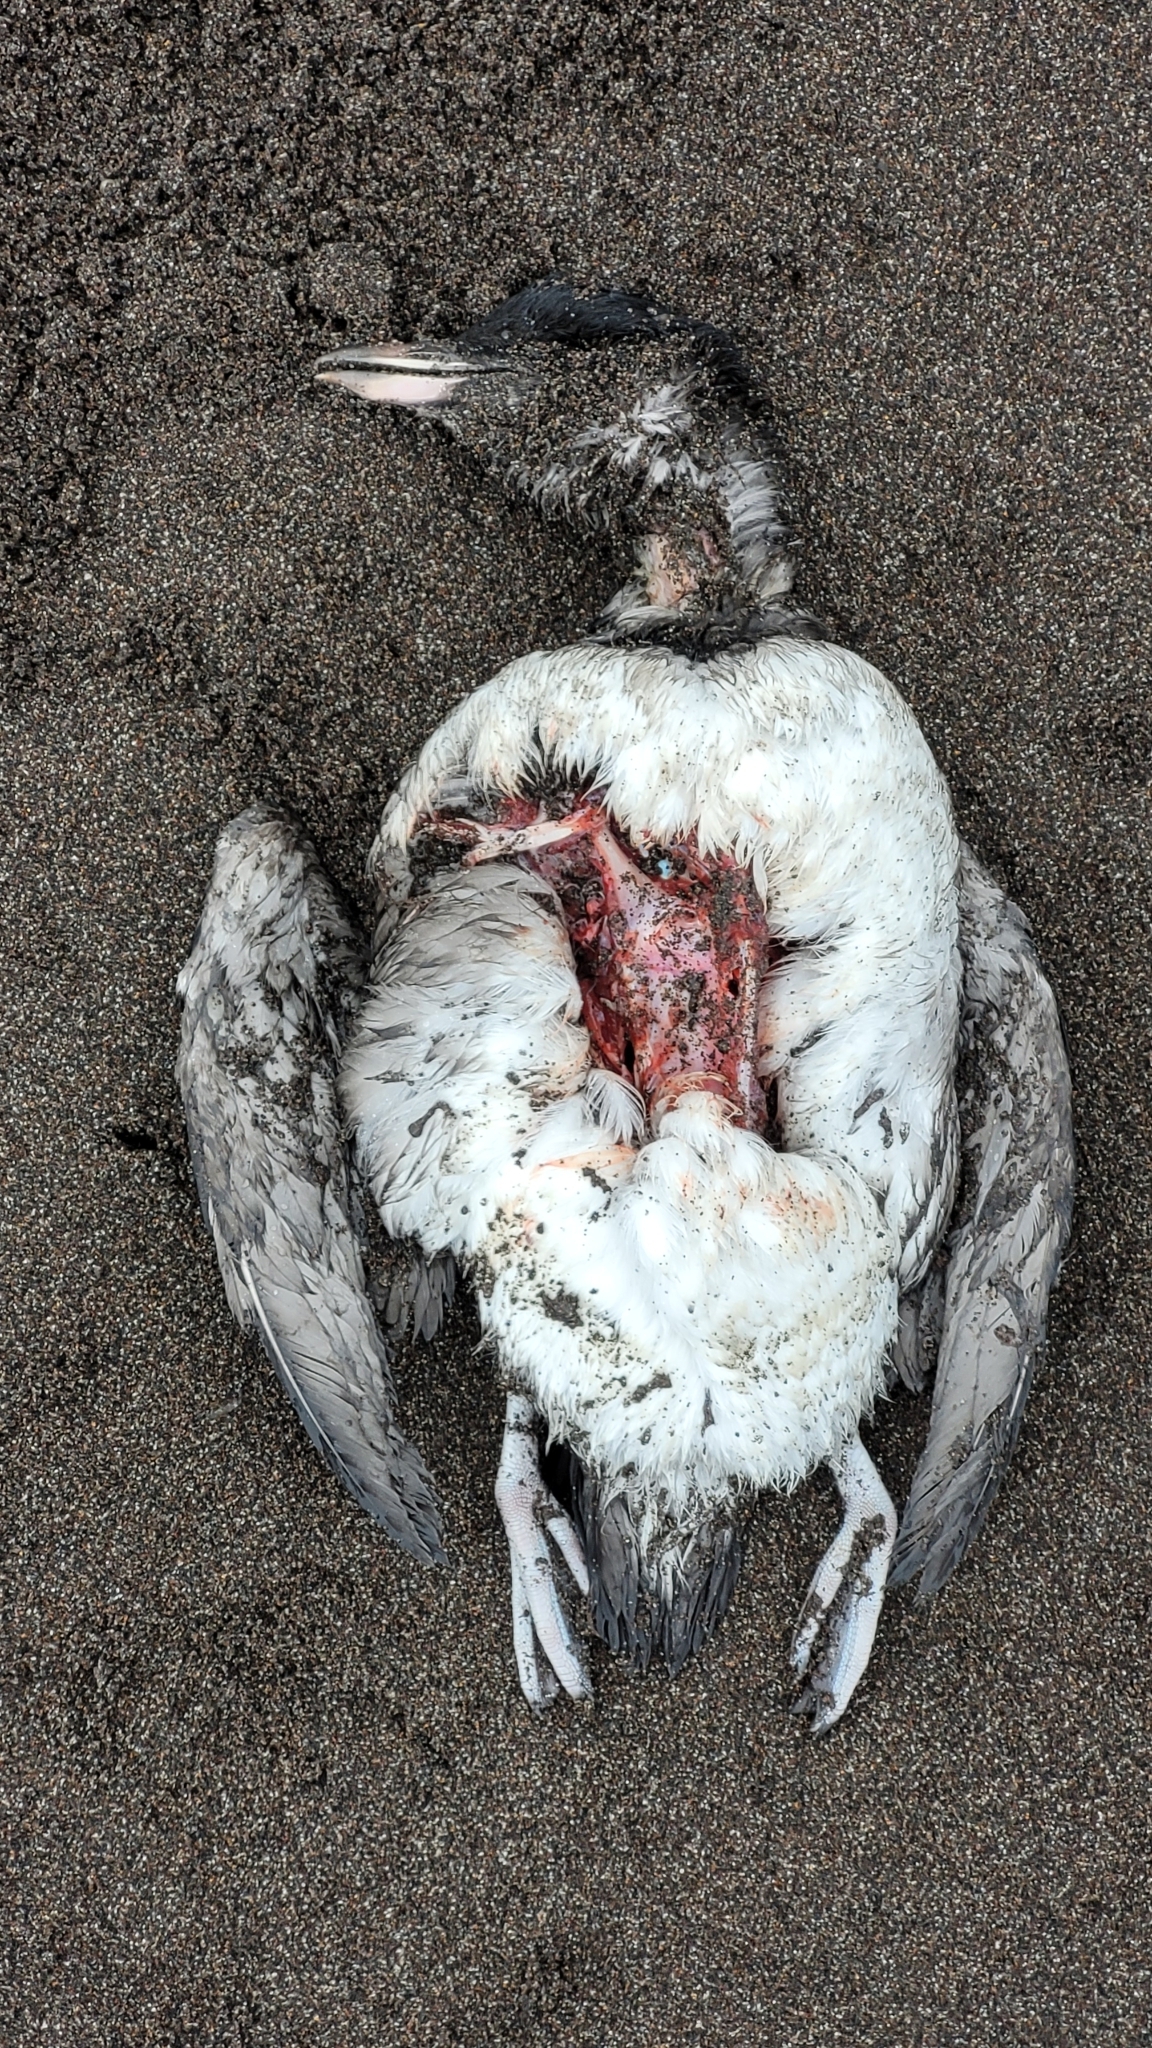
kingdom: Animalia
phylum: Chordata
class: Aves
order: Charadriiformes
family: Alcidae
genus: Cerorhinca
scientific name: Cerorhinca monocerata
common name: Rhinoceros auklet
